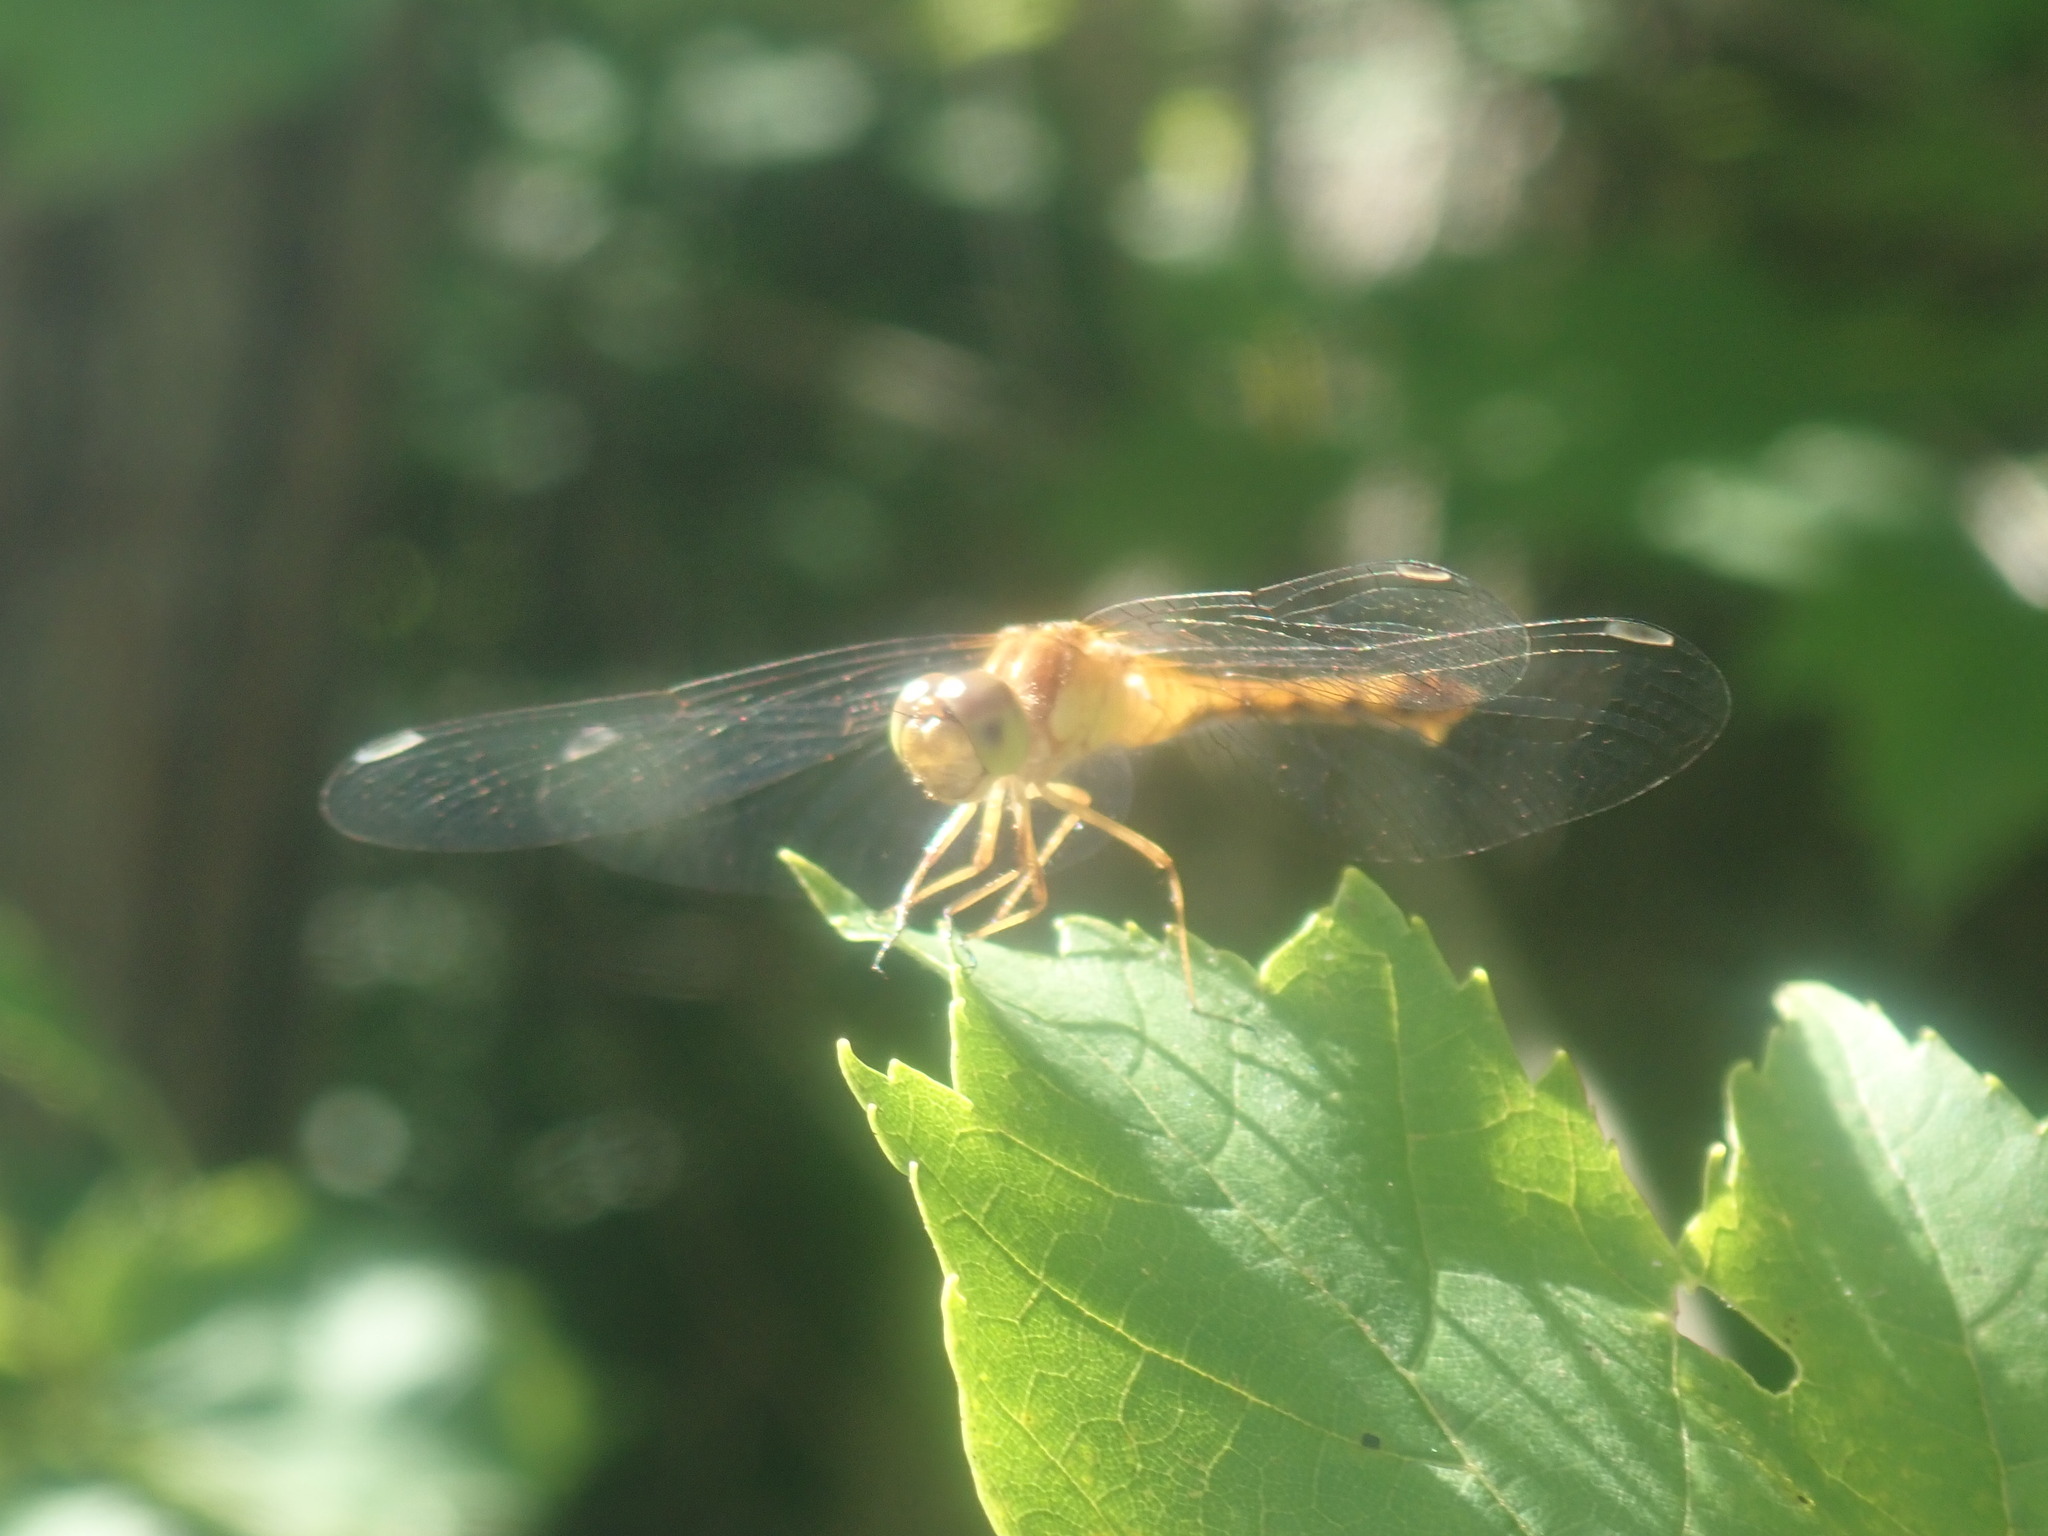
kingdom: Animalia
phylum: Arthropoda
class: Insecta
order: Odonata
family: Libellulidae
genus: Sympetrum
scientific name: Sympetrum vicinum
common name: Autumn meadowhawk
